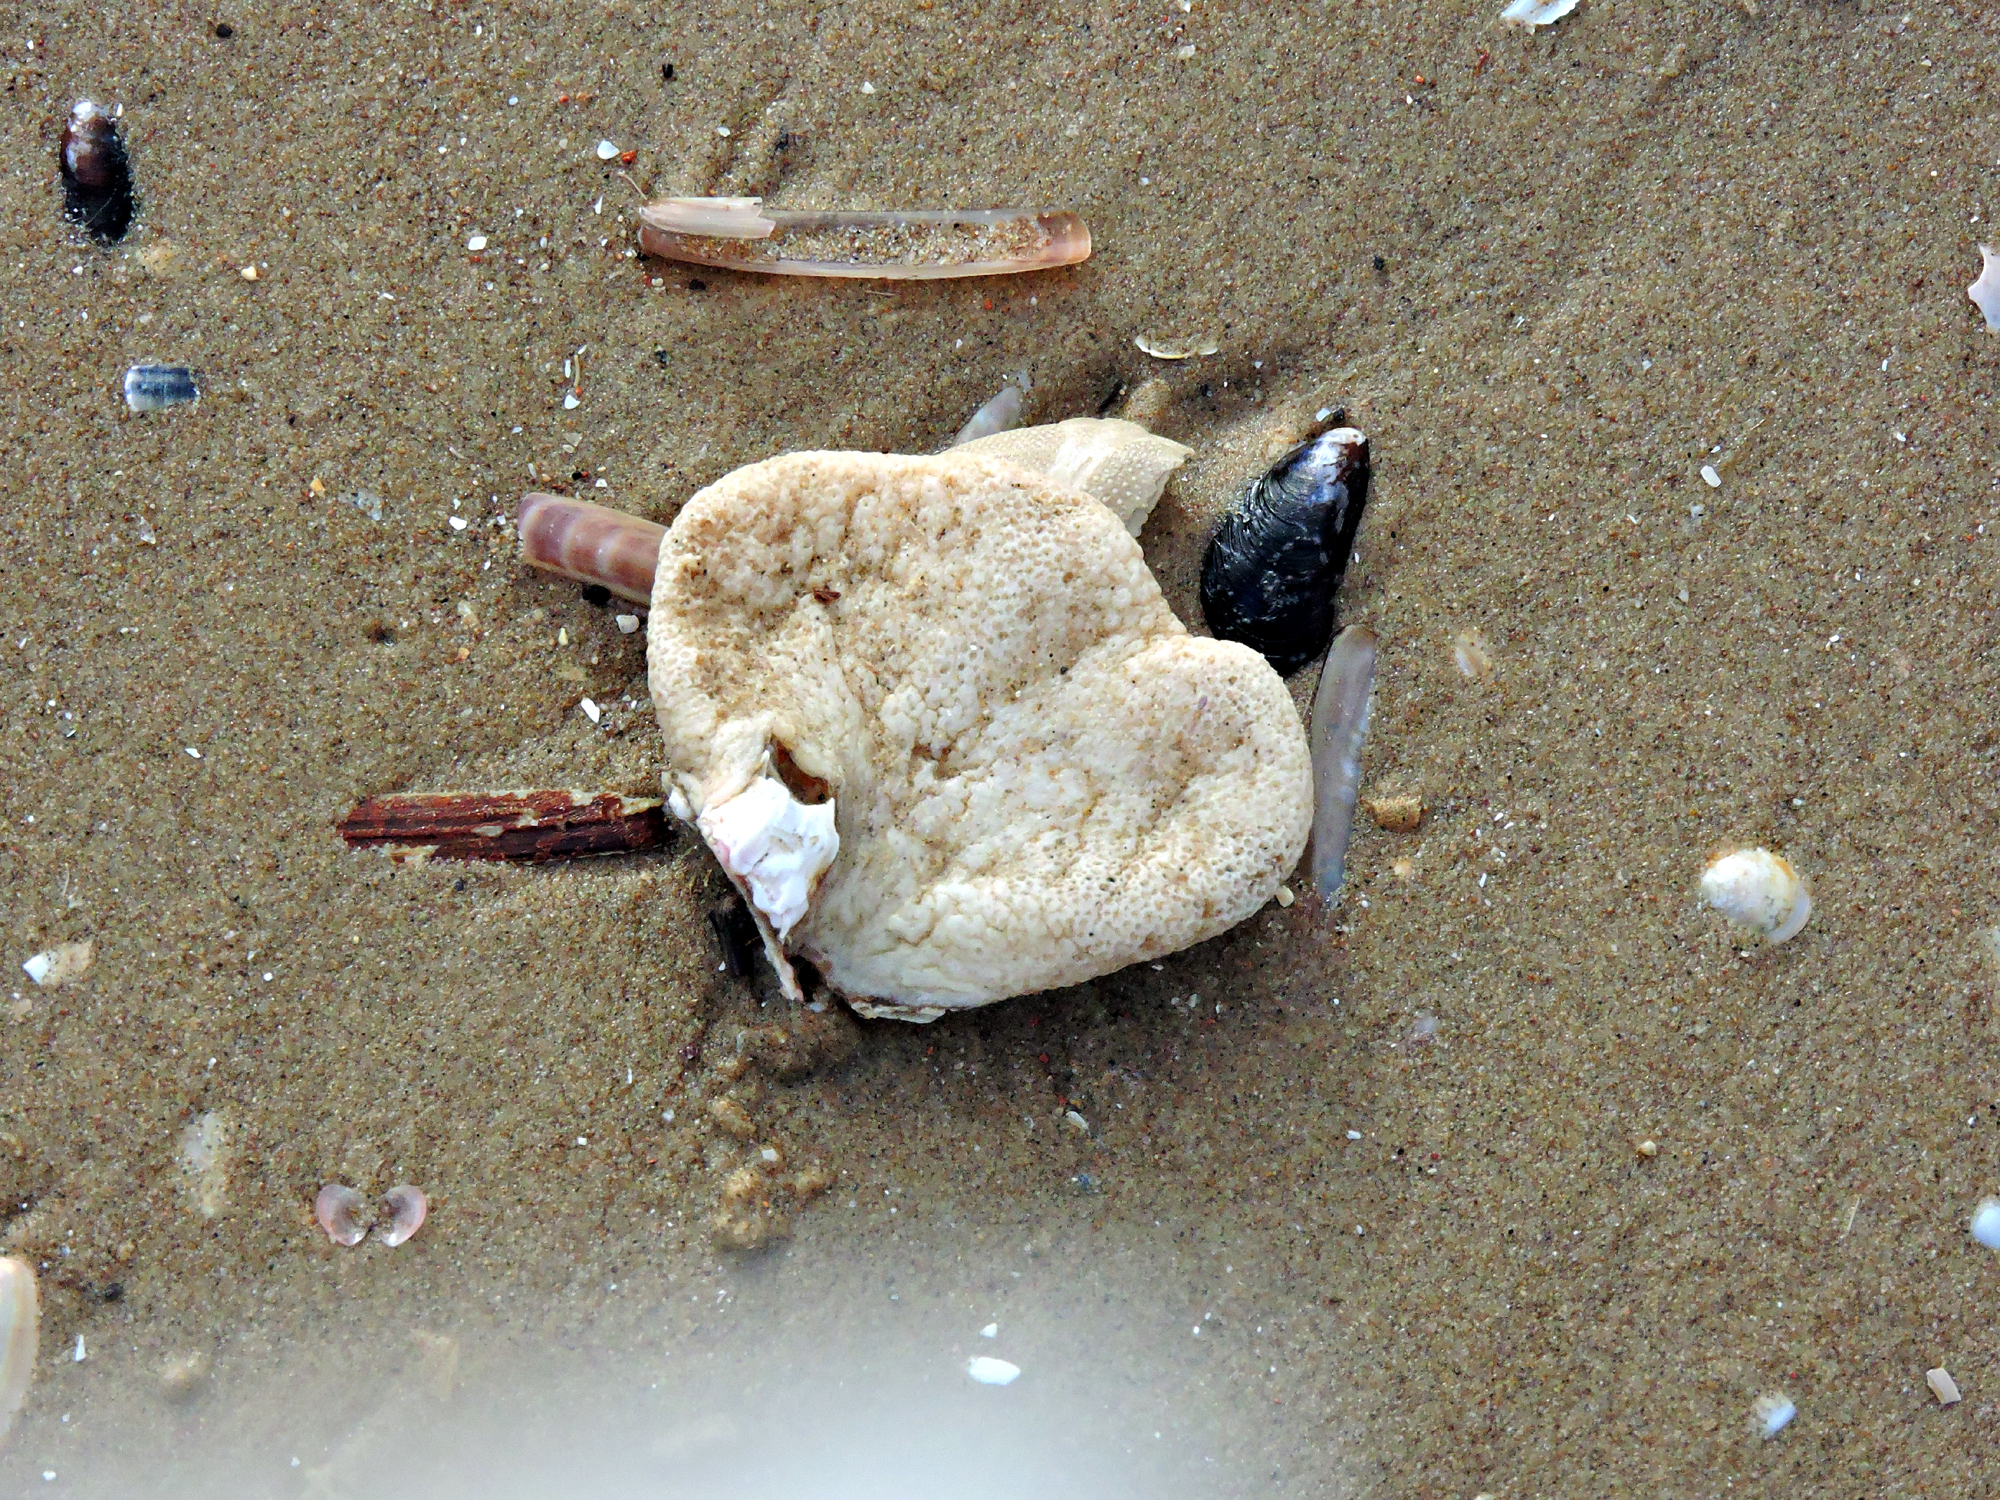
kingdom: Animalia
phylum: Cnidaria
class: Anthozoa
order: Malacalcyonacea
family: Alcyoniidae
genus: Alcyonium
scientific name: Alcyonium digitatum
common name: Dead man's fingers
